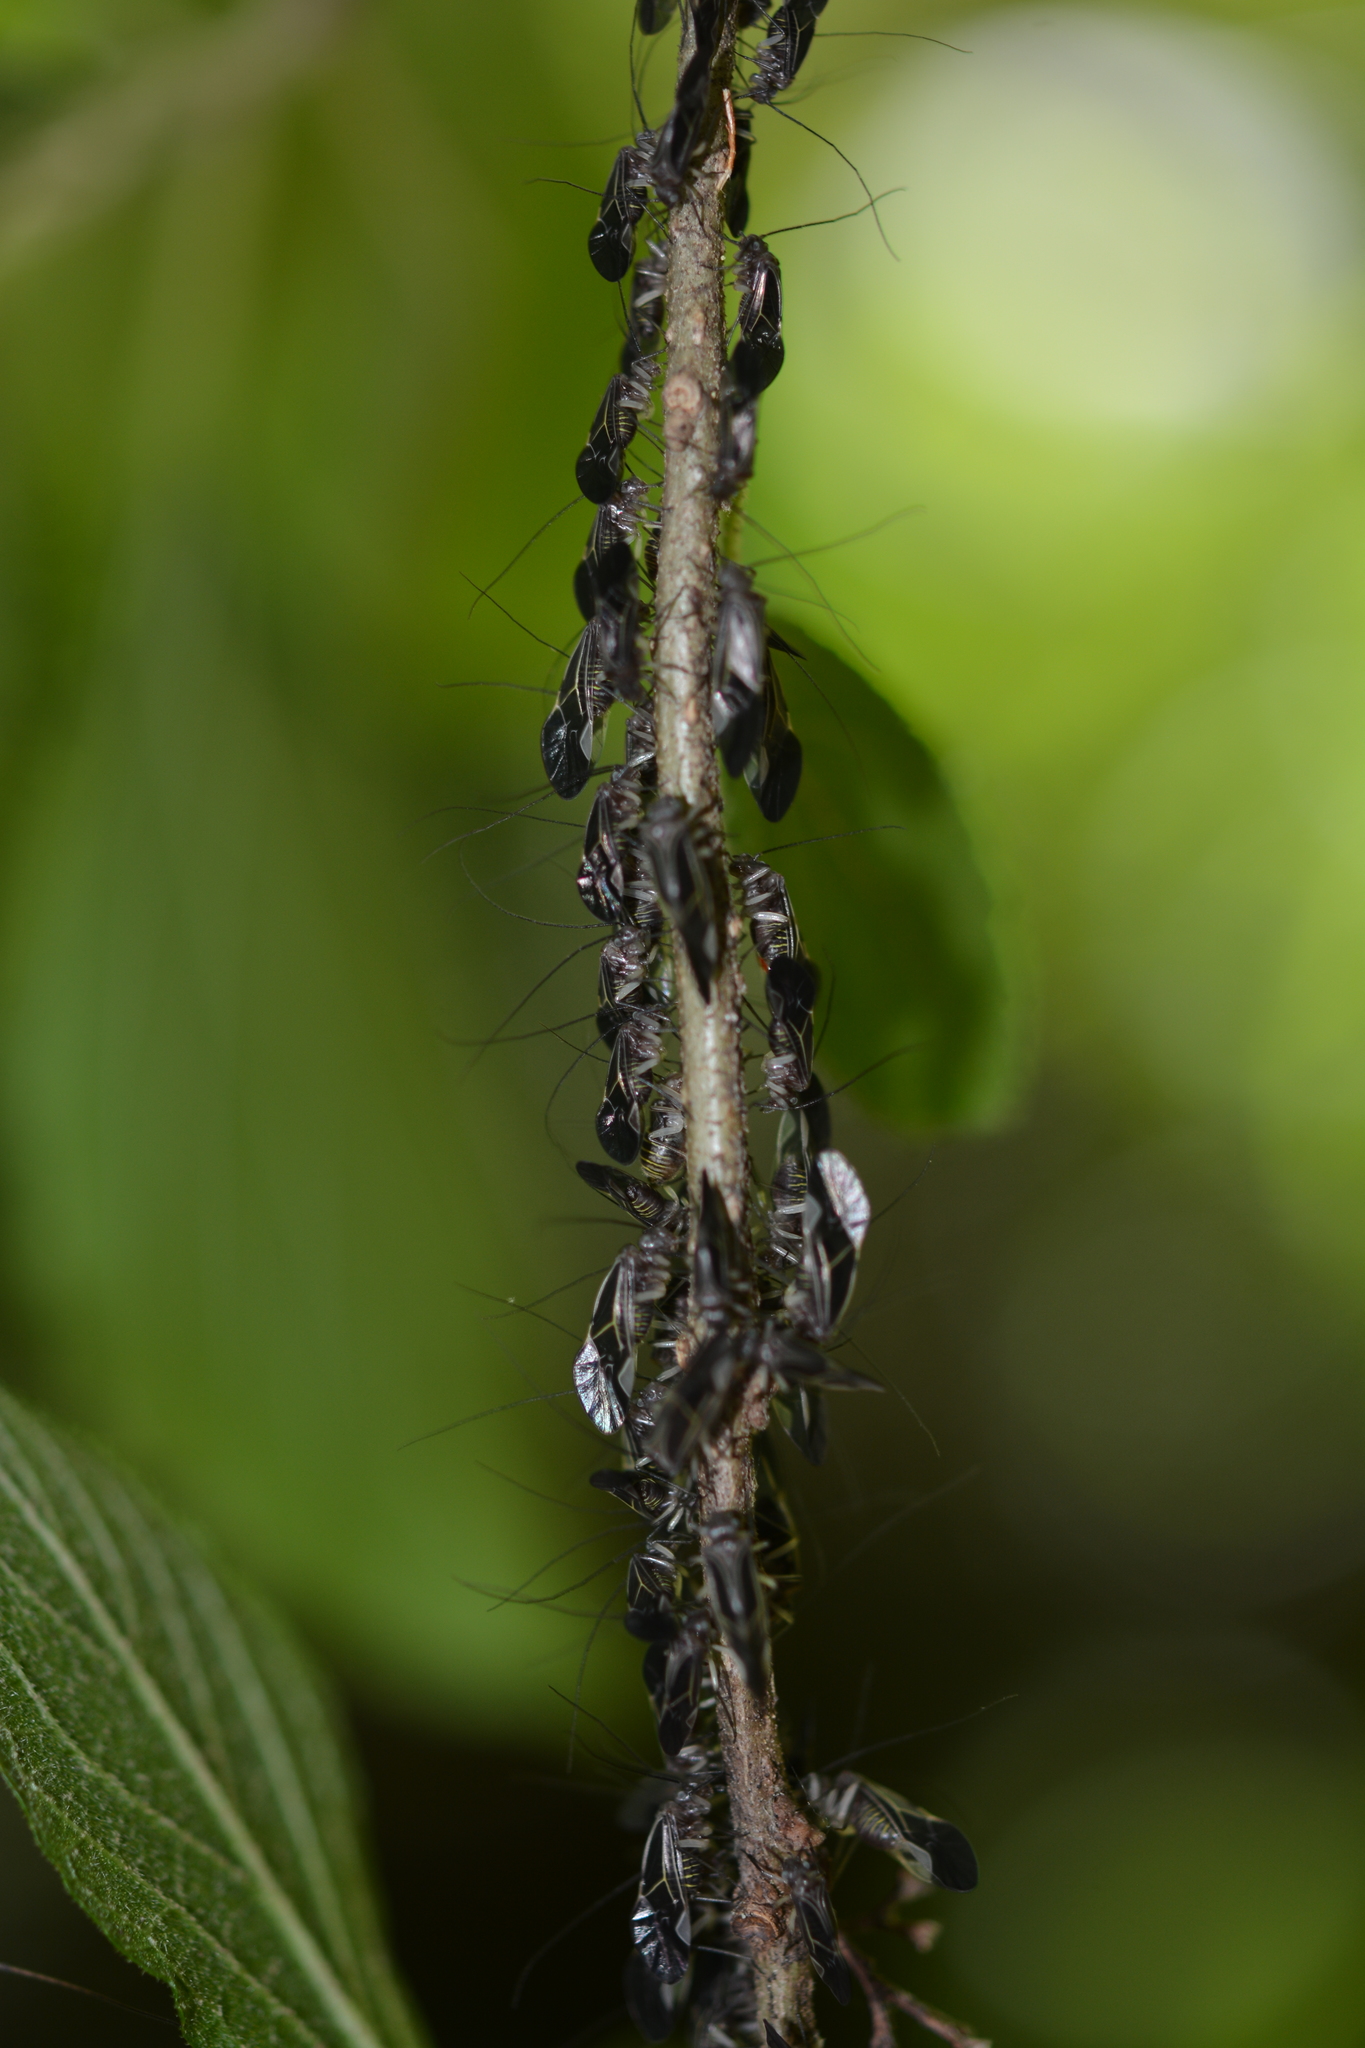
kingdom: Animalia
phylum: Arthropoda
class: Insecta
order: Psocodea
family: Psocidae
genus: Cerastipsocus
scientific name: Cerastipsocus venosus
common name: Tree cattle
